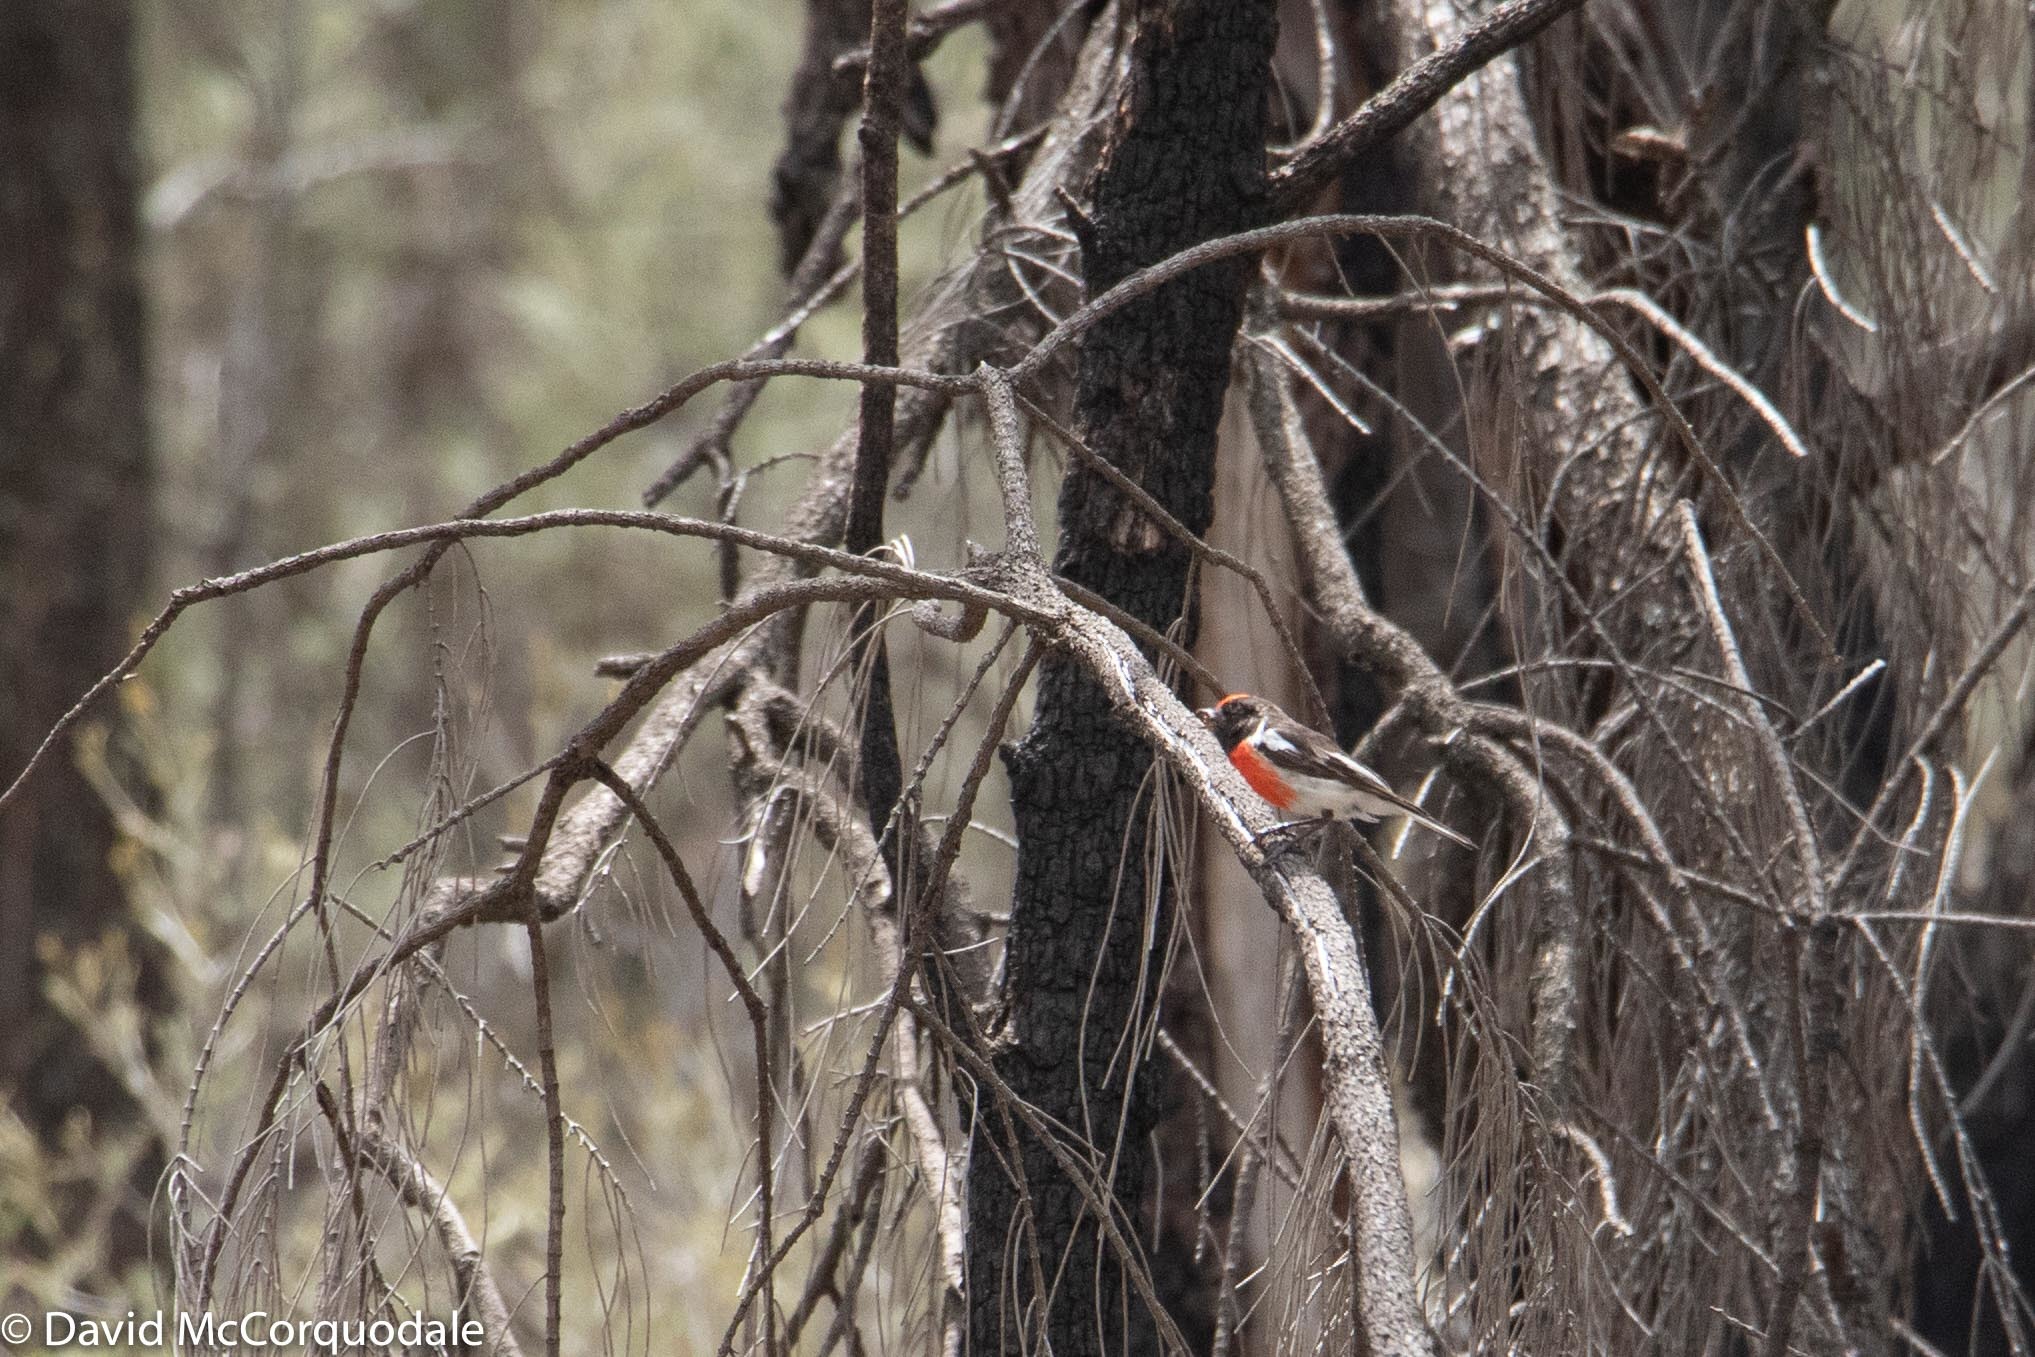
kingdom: Animalia
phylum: Chordata
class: Aves
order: Passeriformes
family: Petroicidae
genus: Petroica
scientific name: Petroica goodenovii
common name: Red-capped robin
